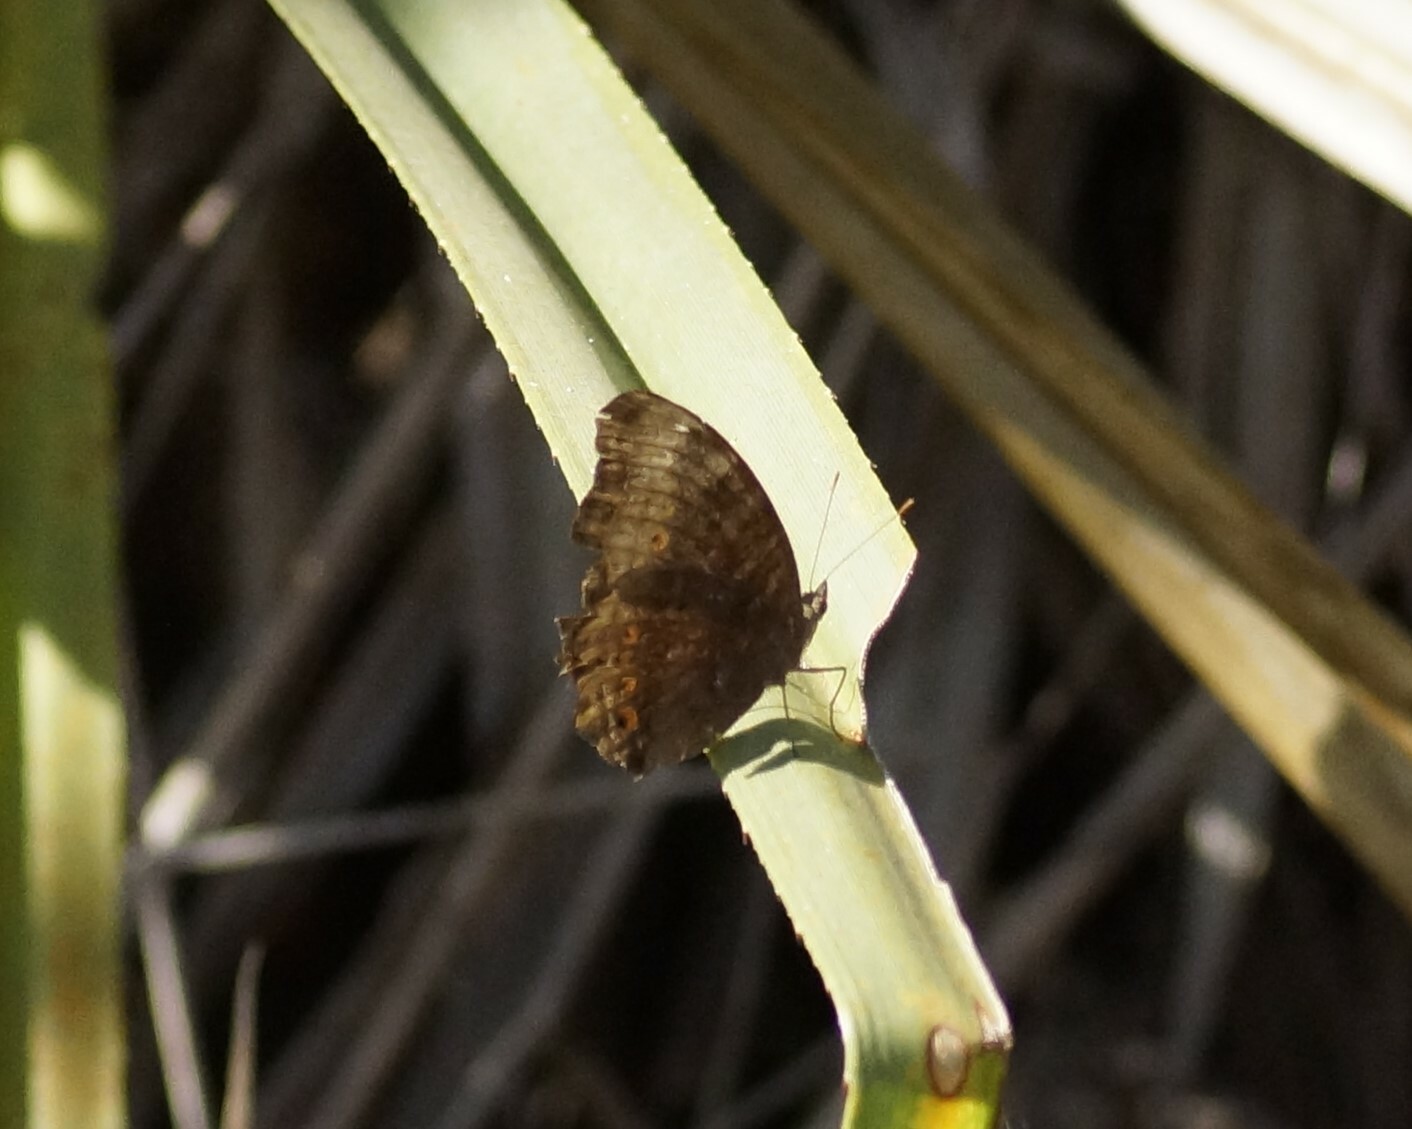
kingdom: Animalia
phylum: Arthropoda
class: Insecta
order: Lepidoptera
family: Nymphalidae
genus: Junonia
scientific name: Junonia hedonia
